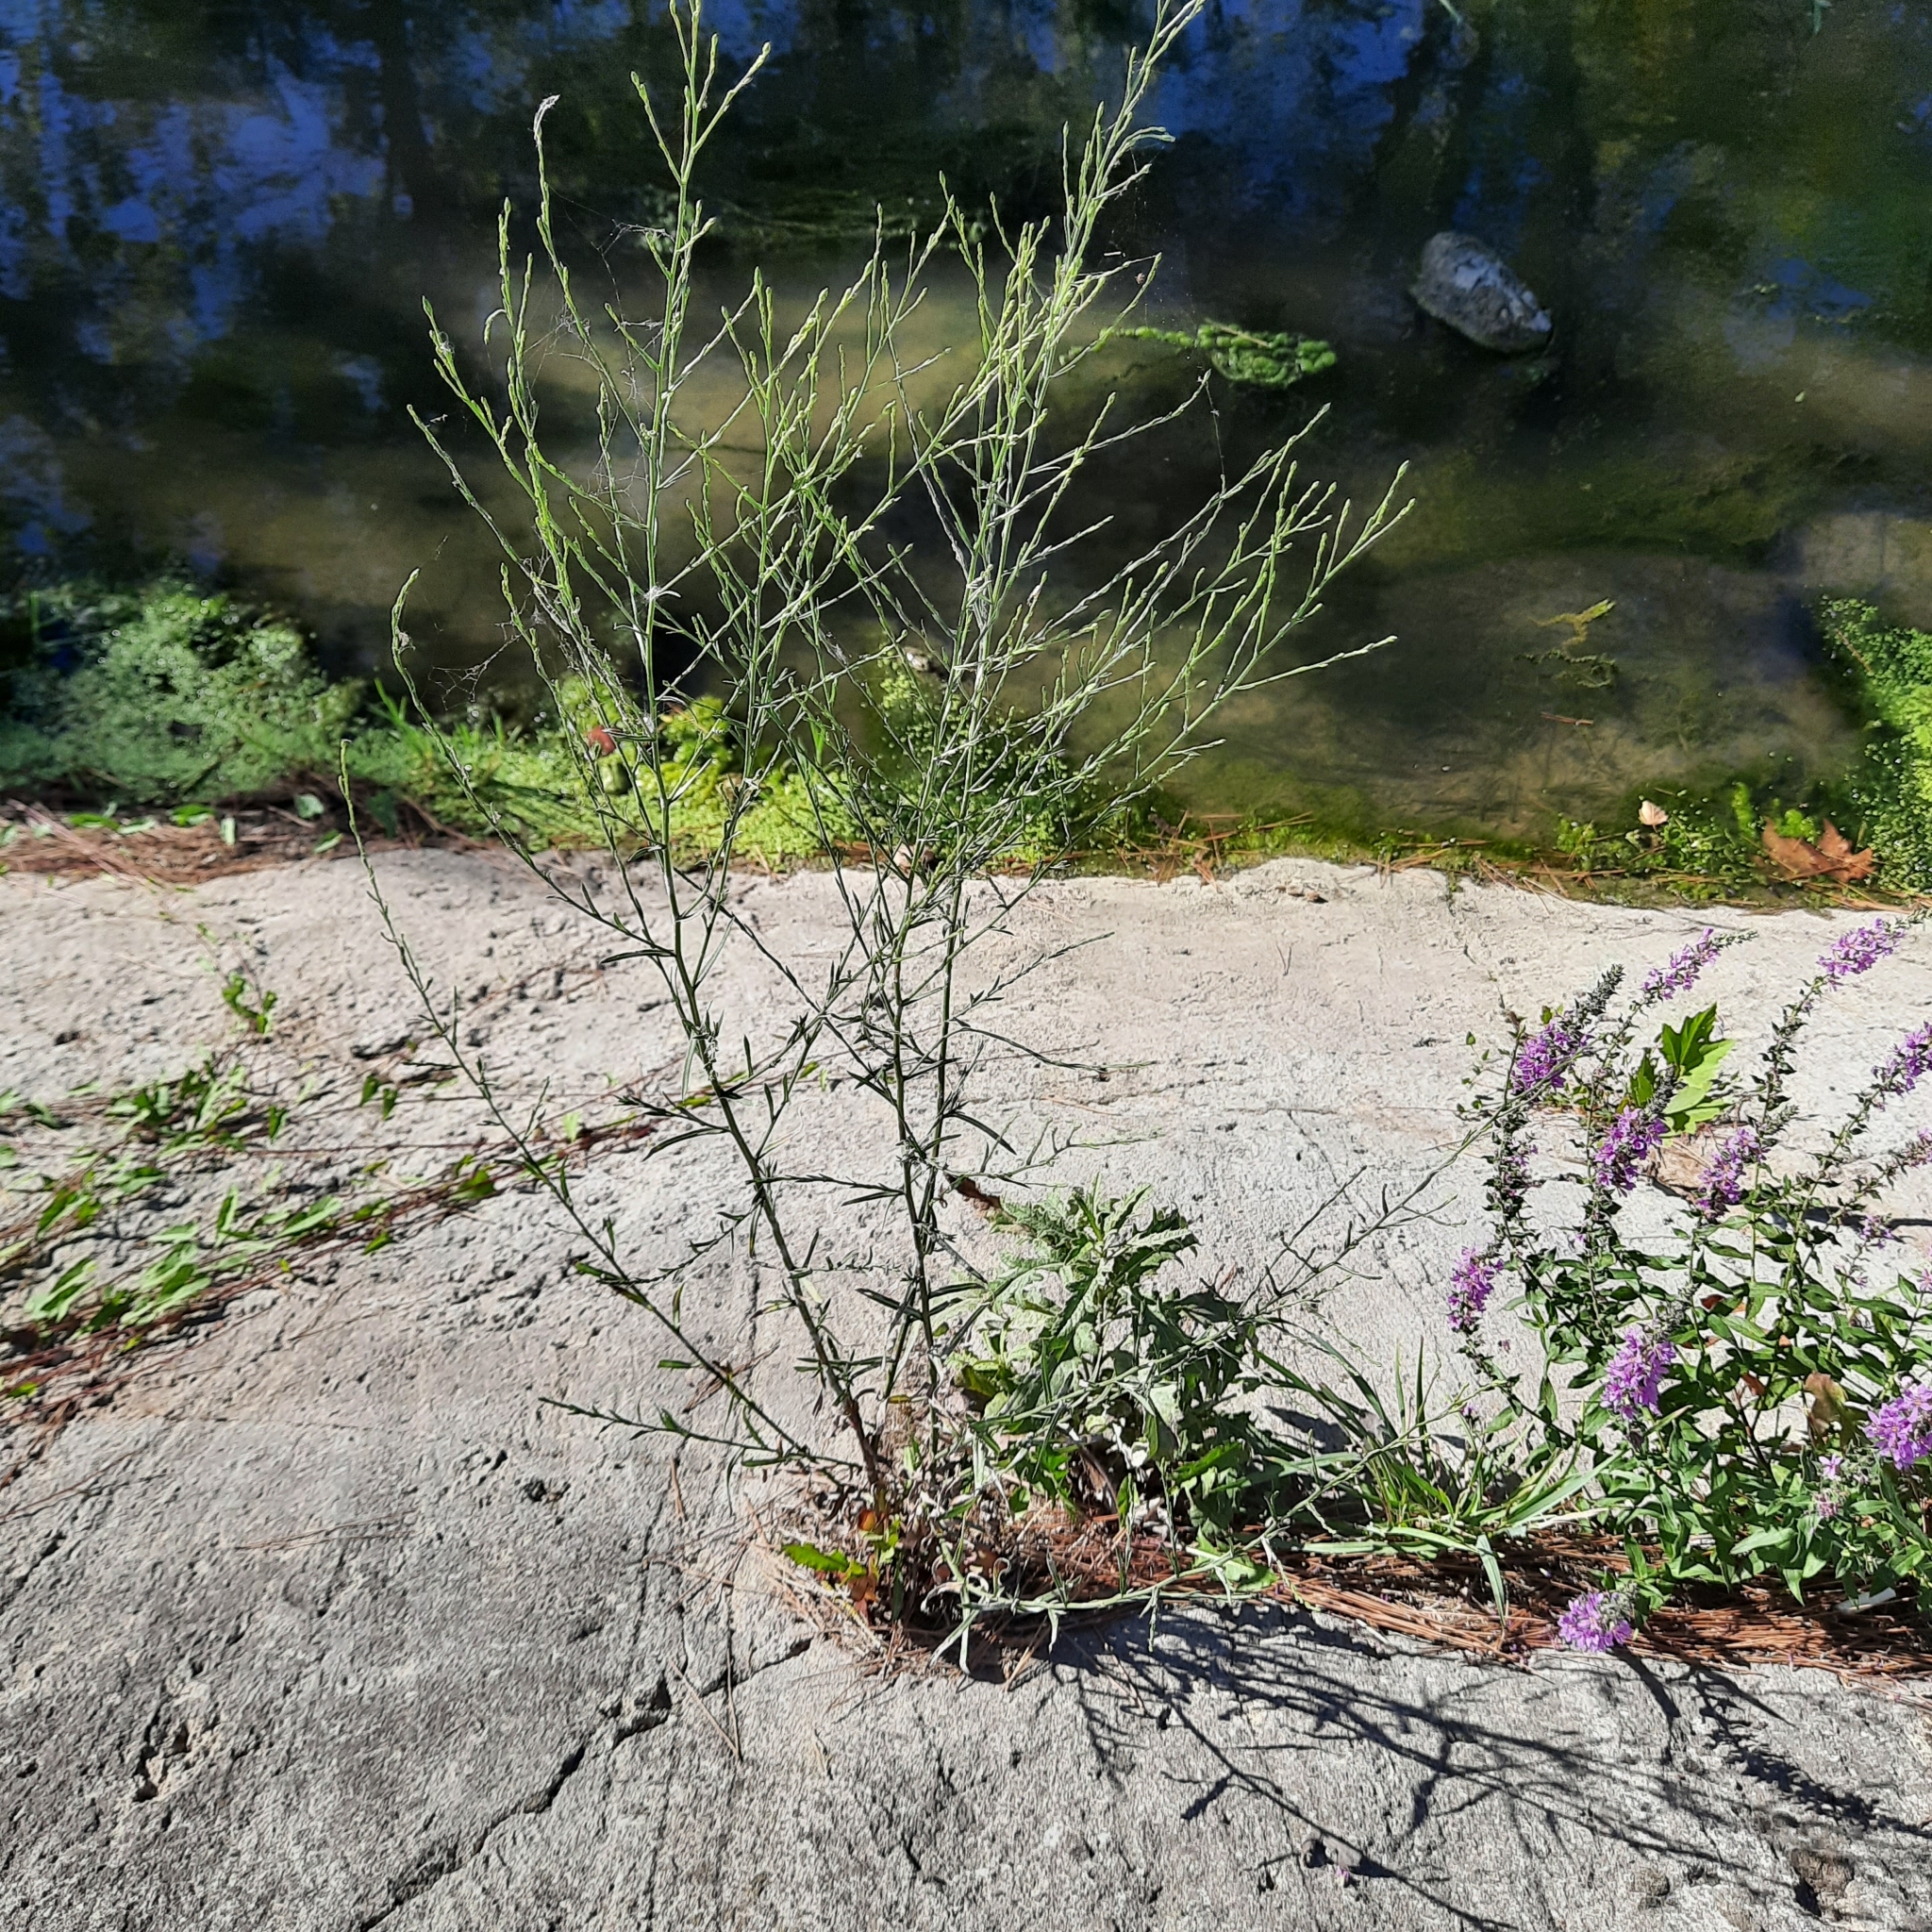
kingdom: Plantae
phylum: Tracheophyta
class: Magnoliopsida
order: Myrtales
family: Lythraceae
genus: Lythrum
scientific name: Lythrum salicaria
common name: Purple loosestrife
